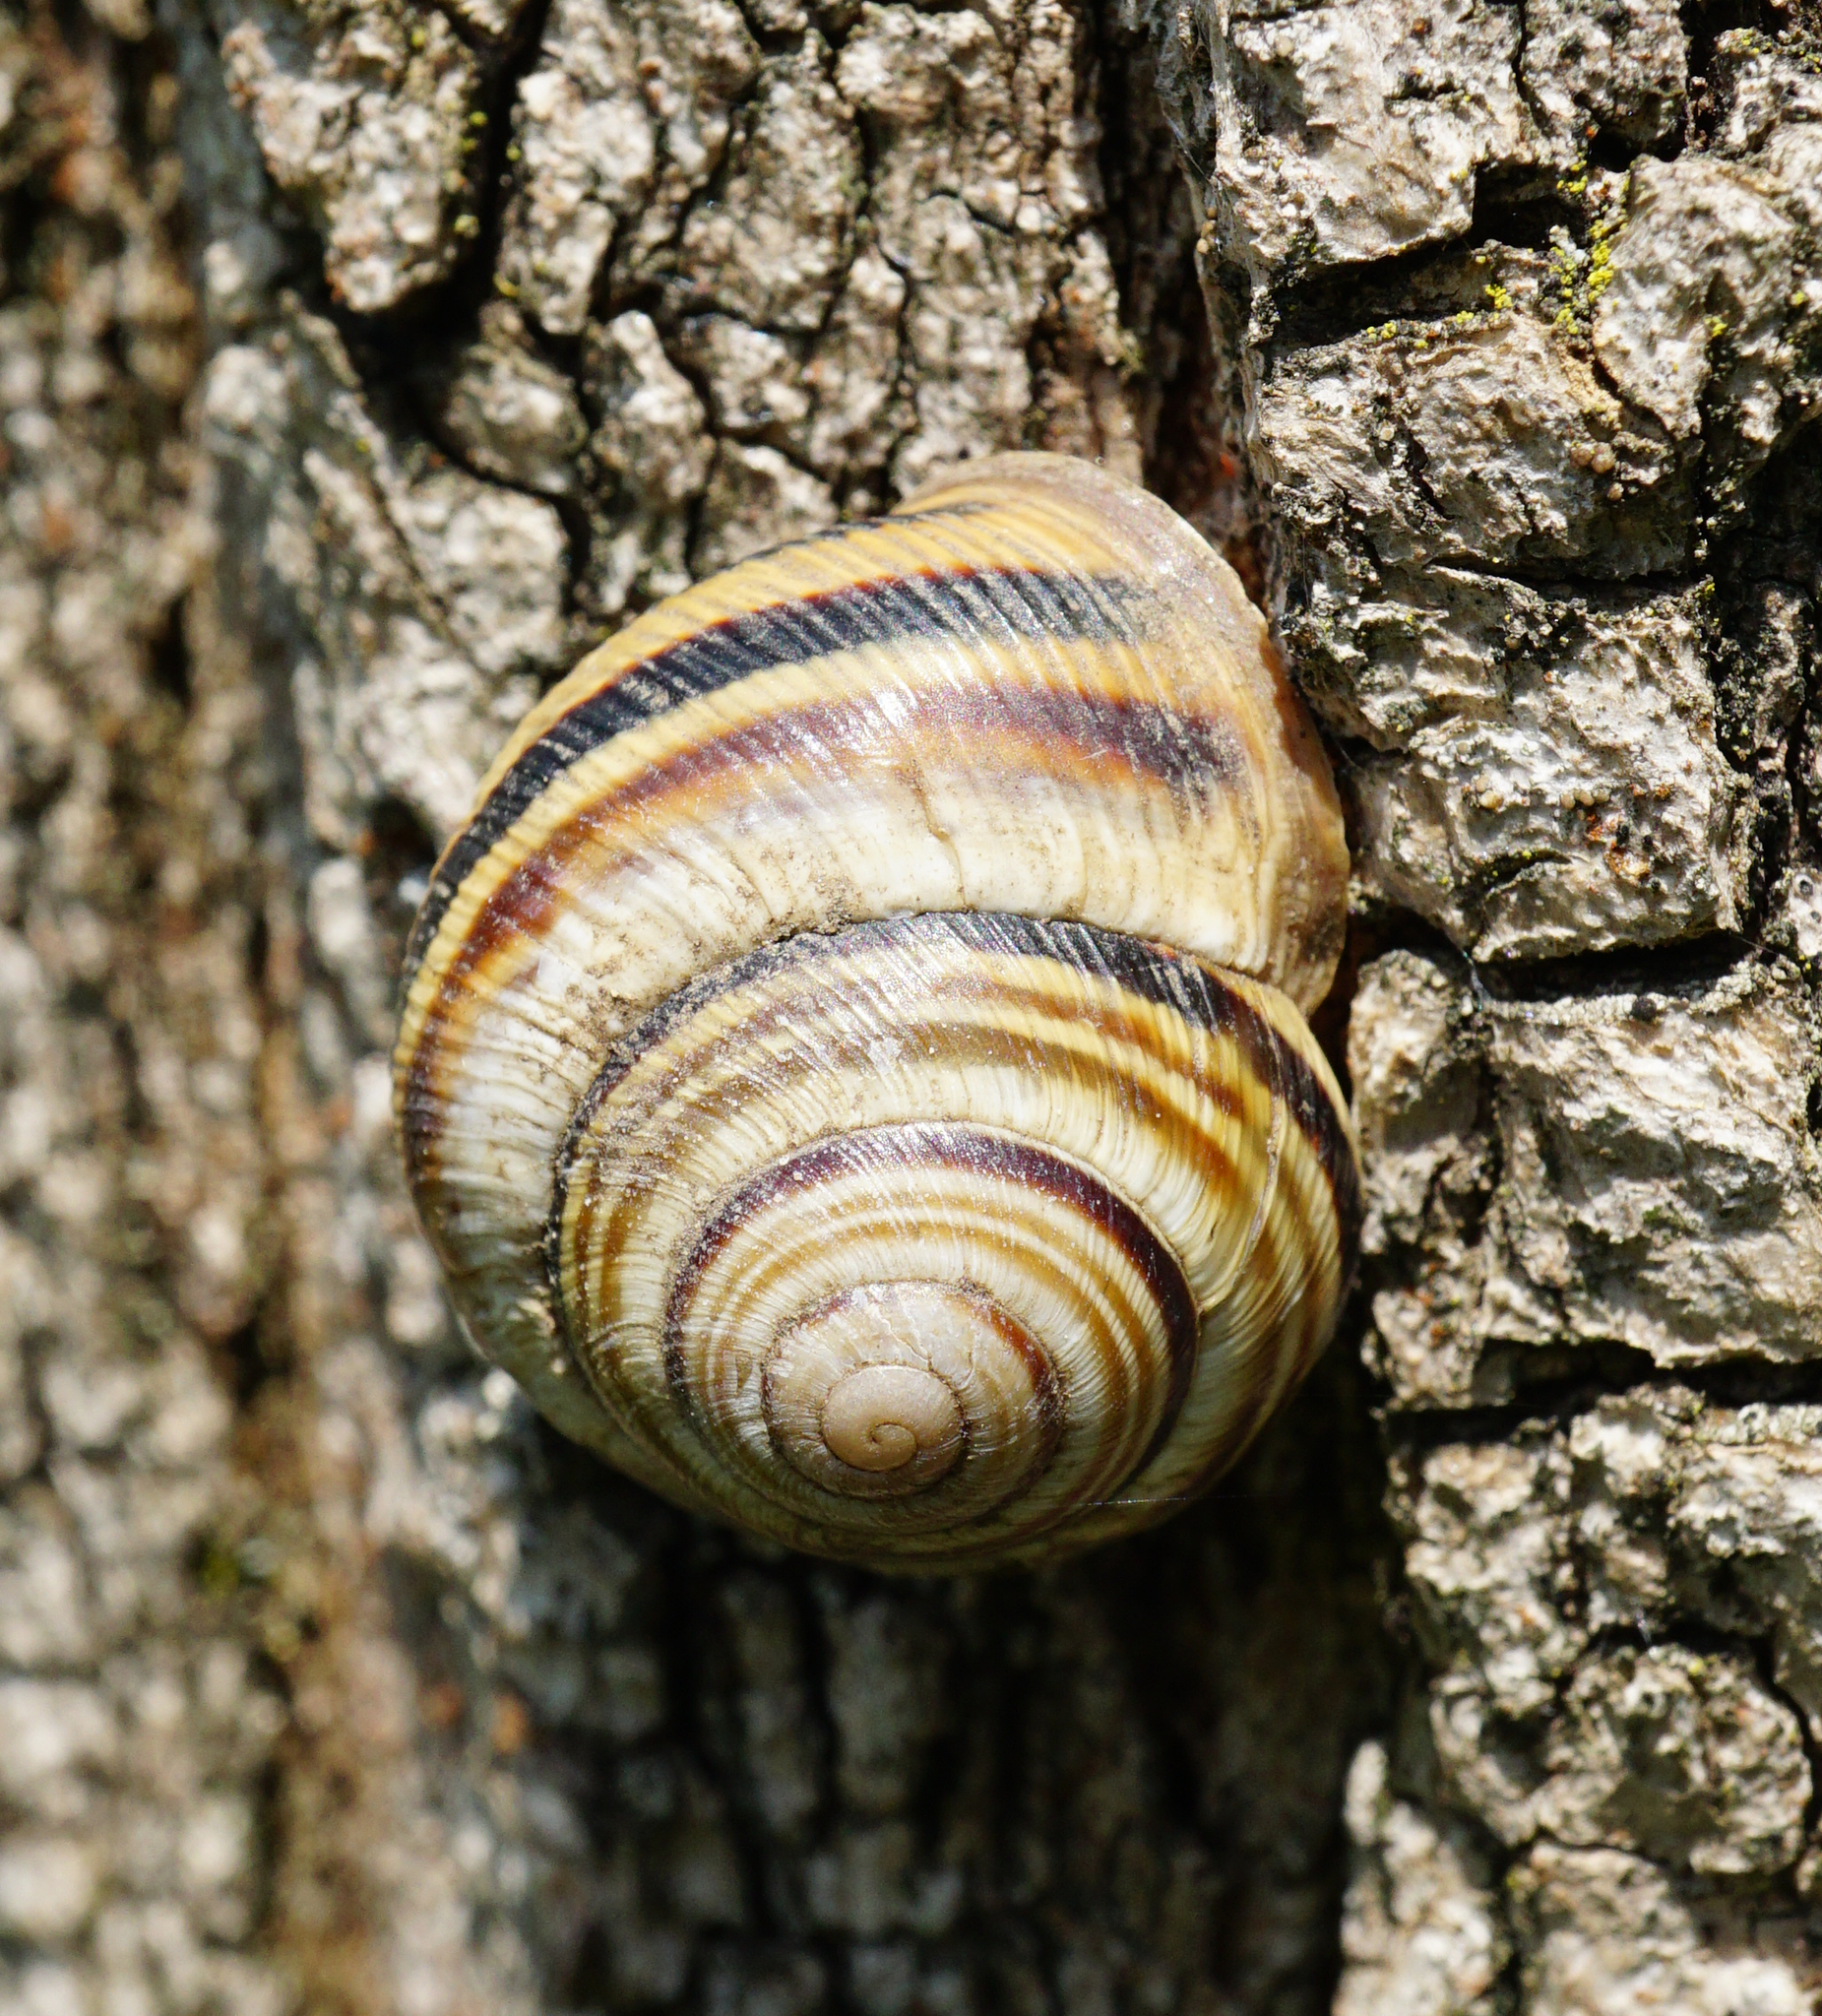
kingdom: Animalia
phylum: Mollusca
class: Gastropoda
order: Stylommatophora
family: Helicidae
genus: Caucasotachea
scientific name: Caucasotachea vindobonensis
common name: European helicid land snail
